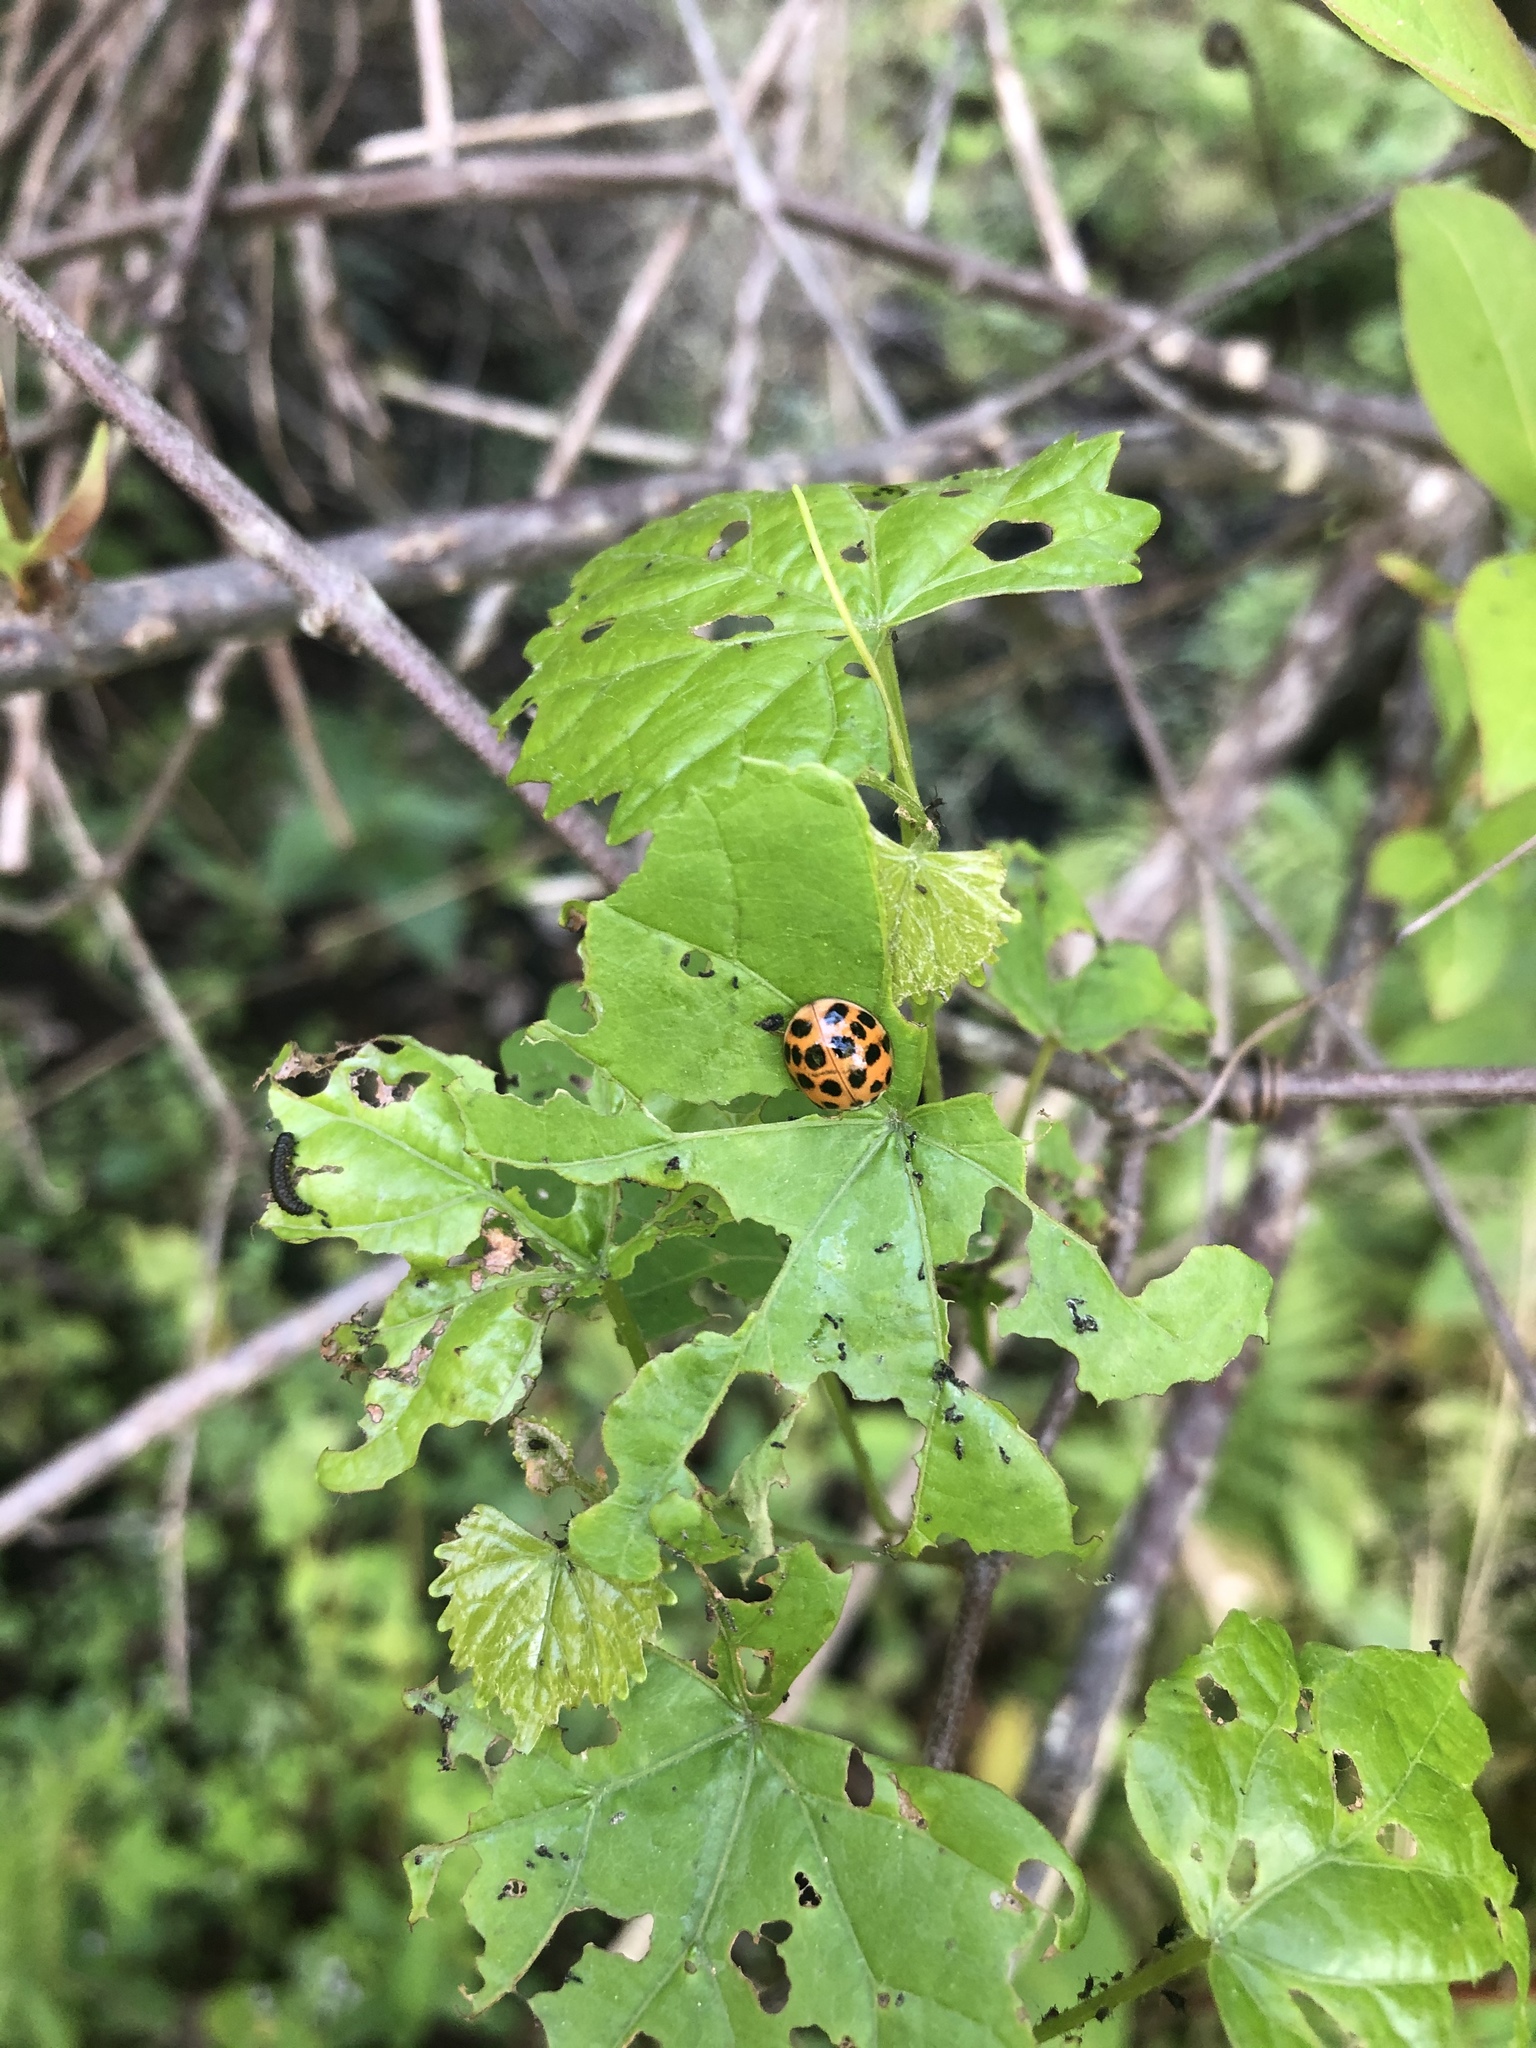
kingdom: Animalia
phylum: Arthropoda
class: Insecta
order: Coleoptera
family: Coccinellidae
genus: Harmonia
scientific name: Harmonia axyridis
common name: Harlequin ladybird
